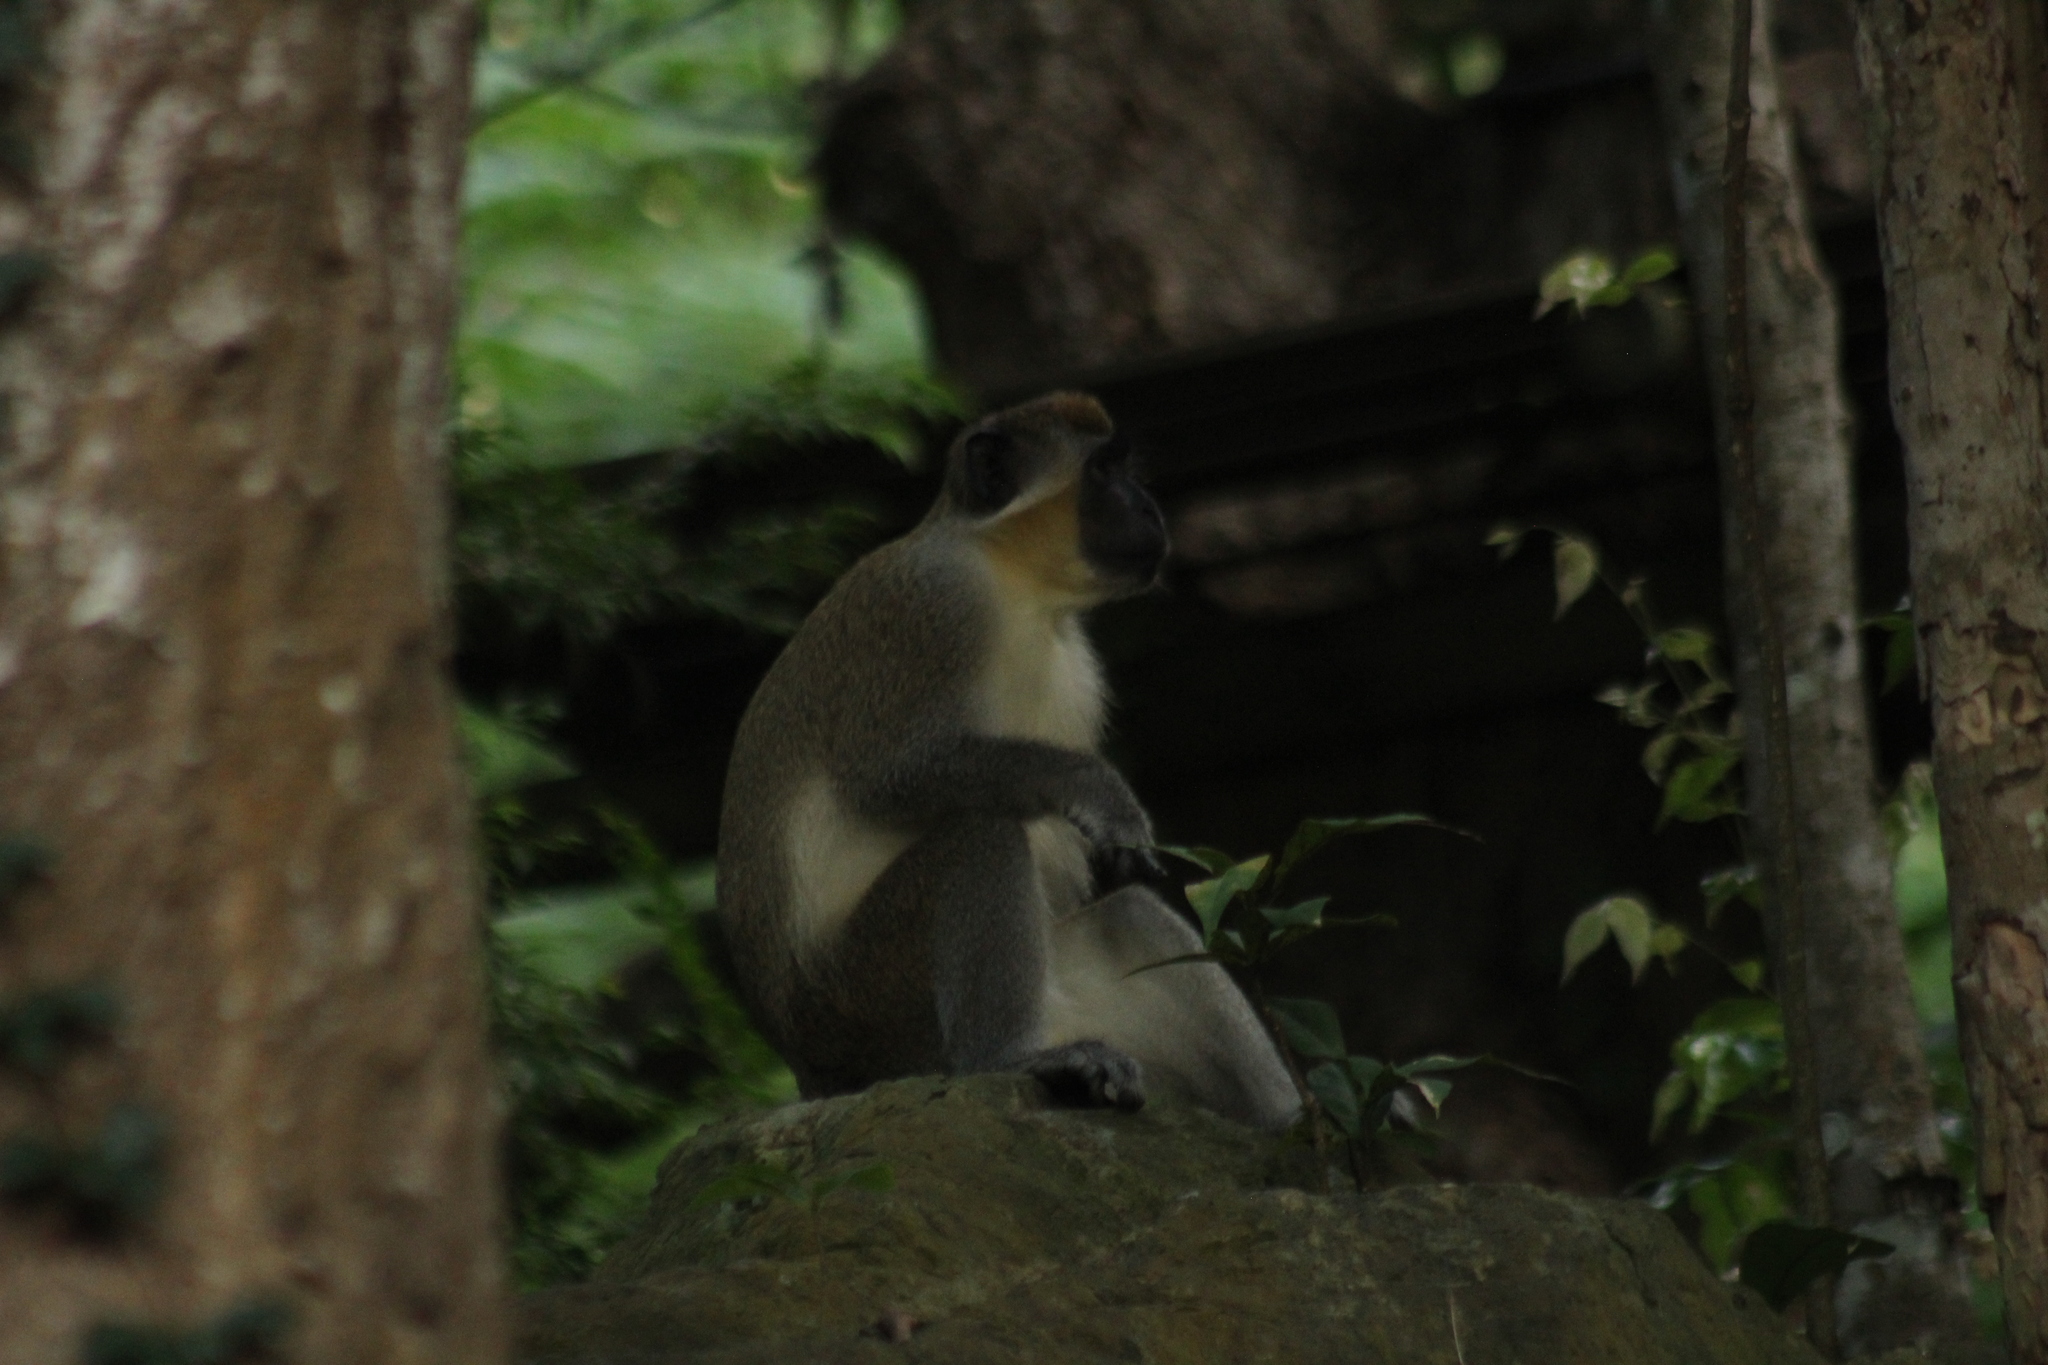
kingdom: Animalia
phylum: Chordata
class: Mammalia
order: Primates
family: Cercopithecidae
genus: Chlorocebus
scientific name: Chlorocebus sabaeus
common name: Green monkey
